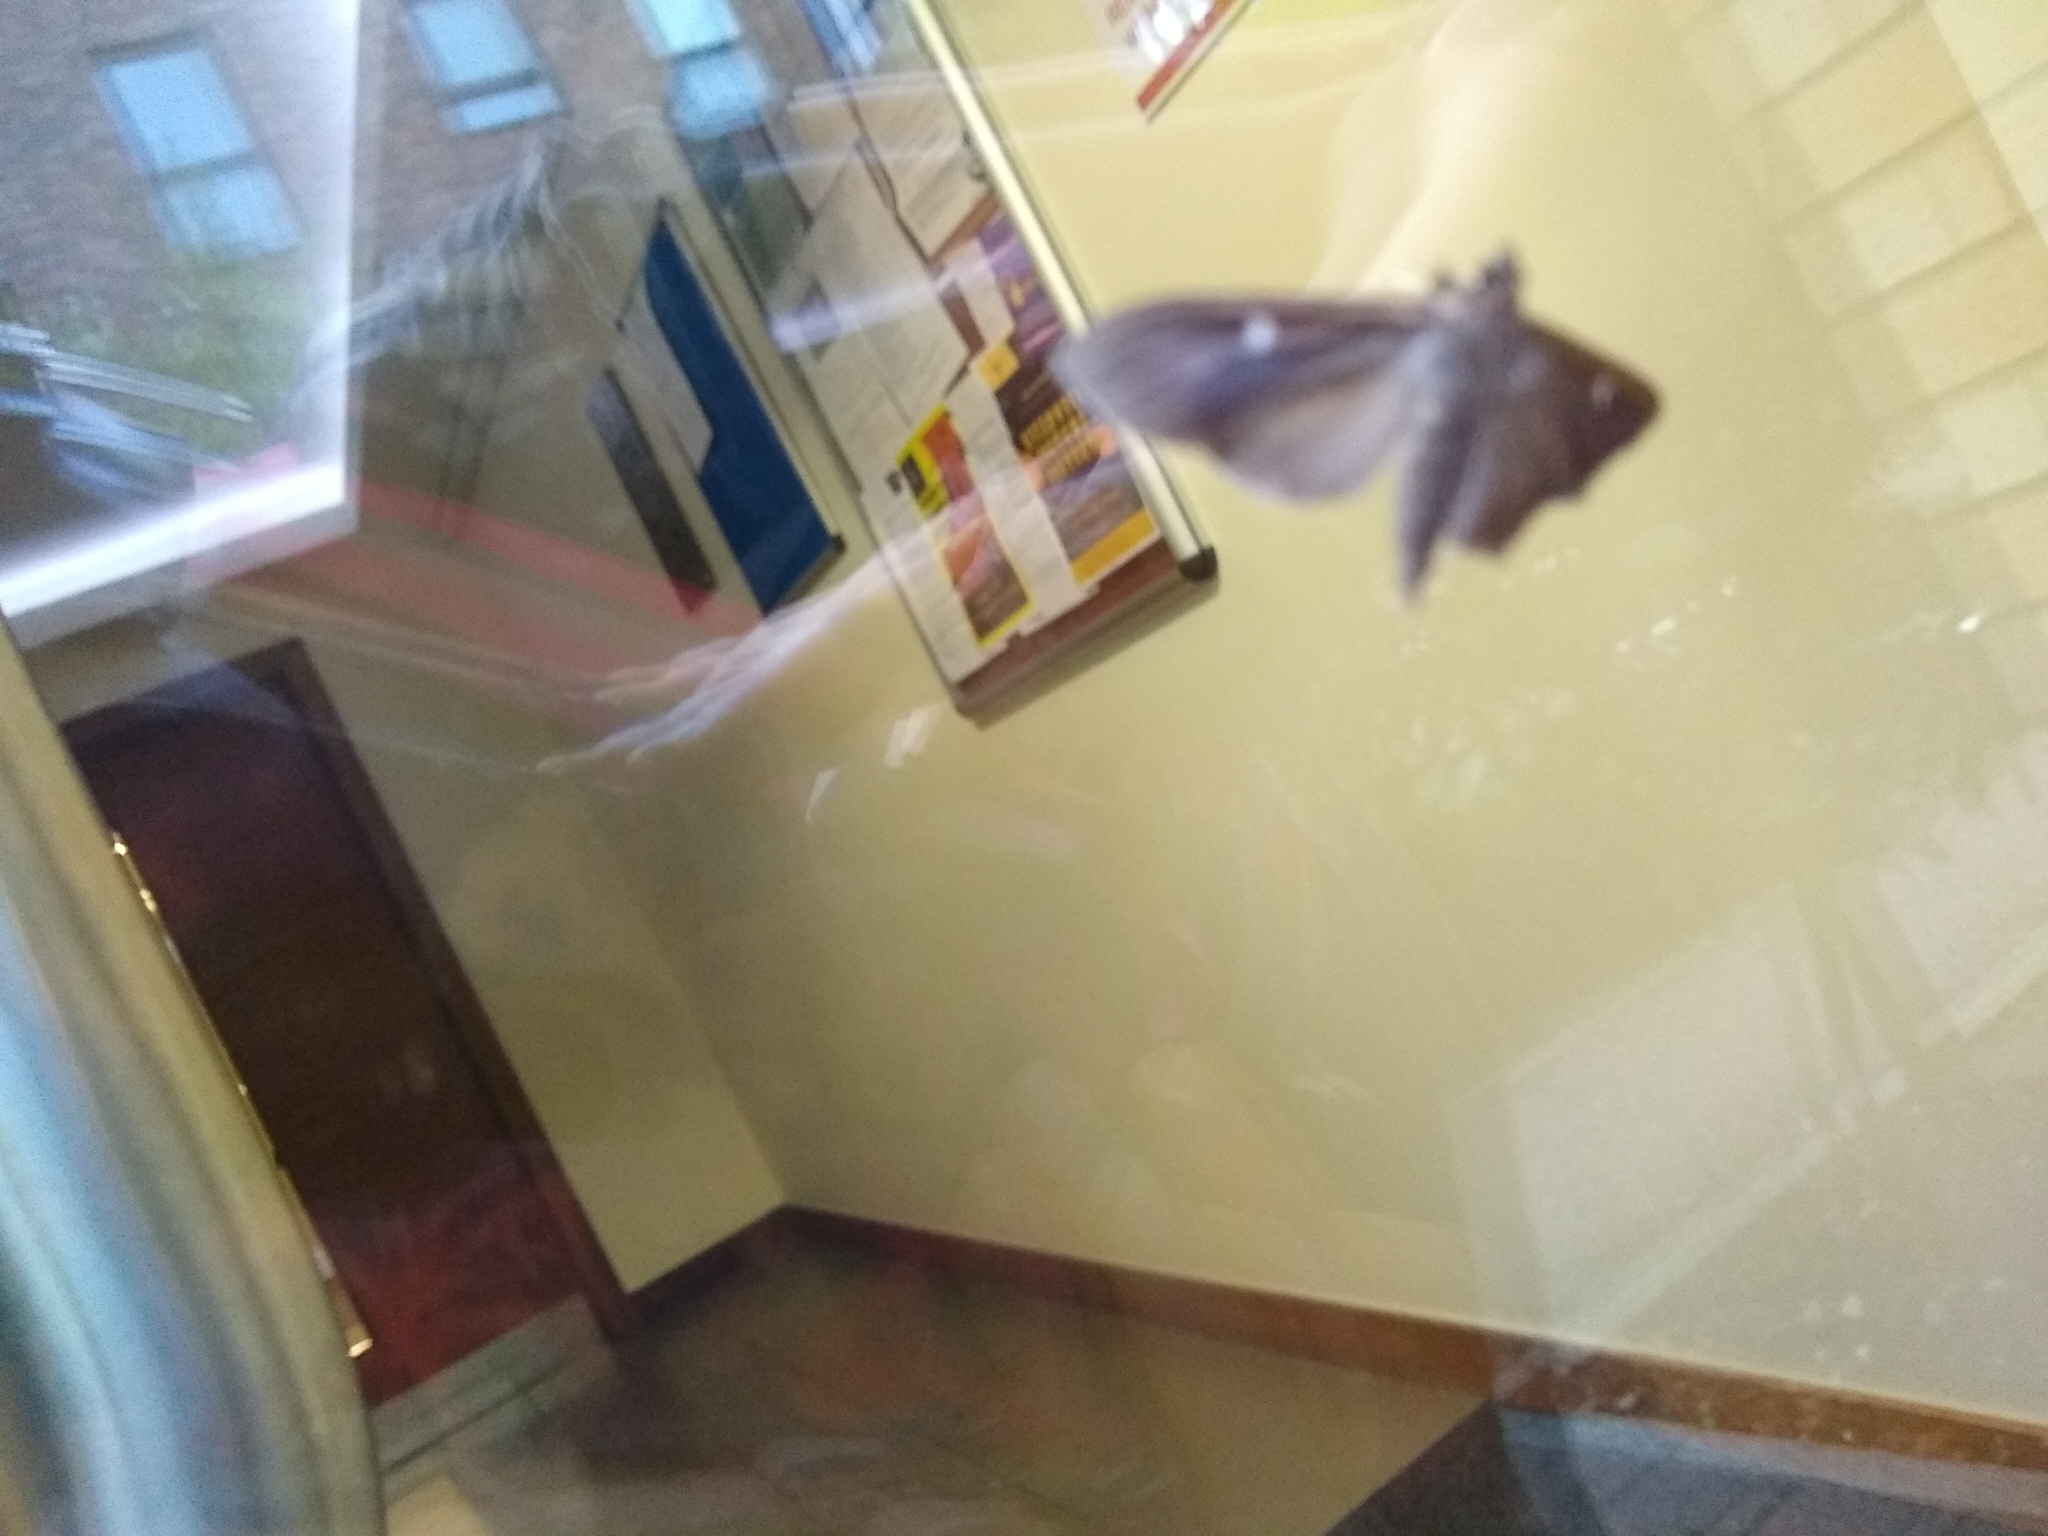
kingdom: Animalia
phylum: Arthropoda
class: Insecta
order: Lepidoptera
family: Crambidae
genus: Cydalima
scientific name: Cydalima perspectalis
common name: Box tree moth
